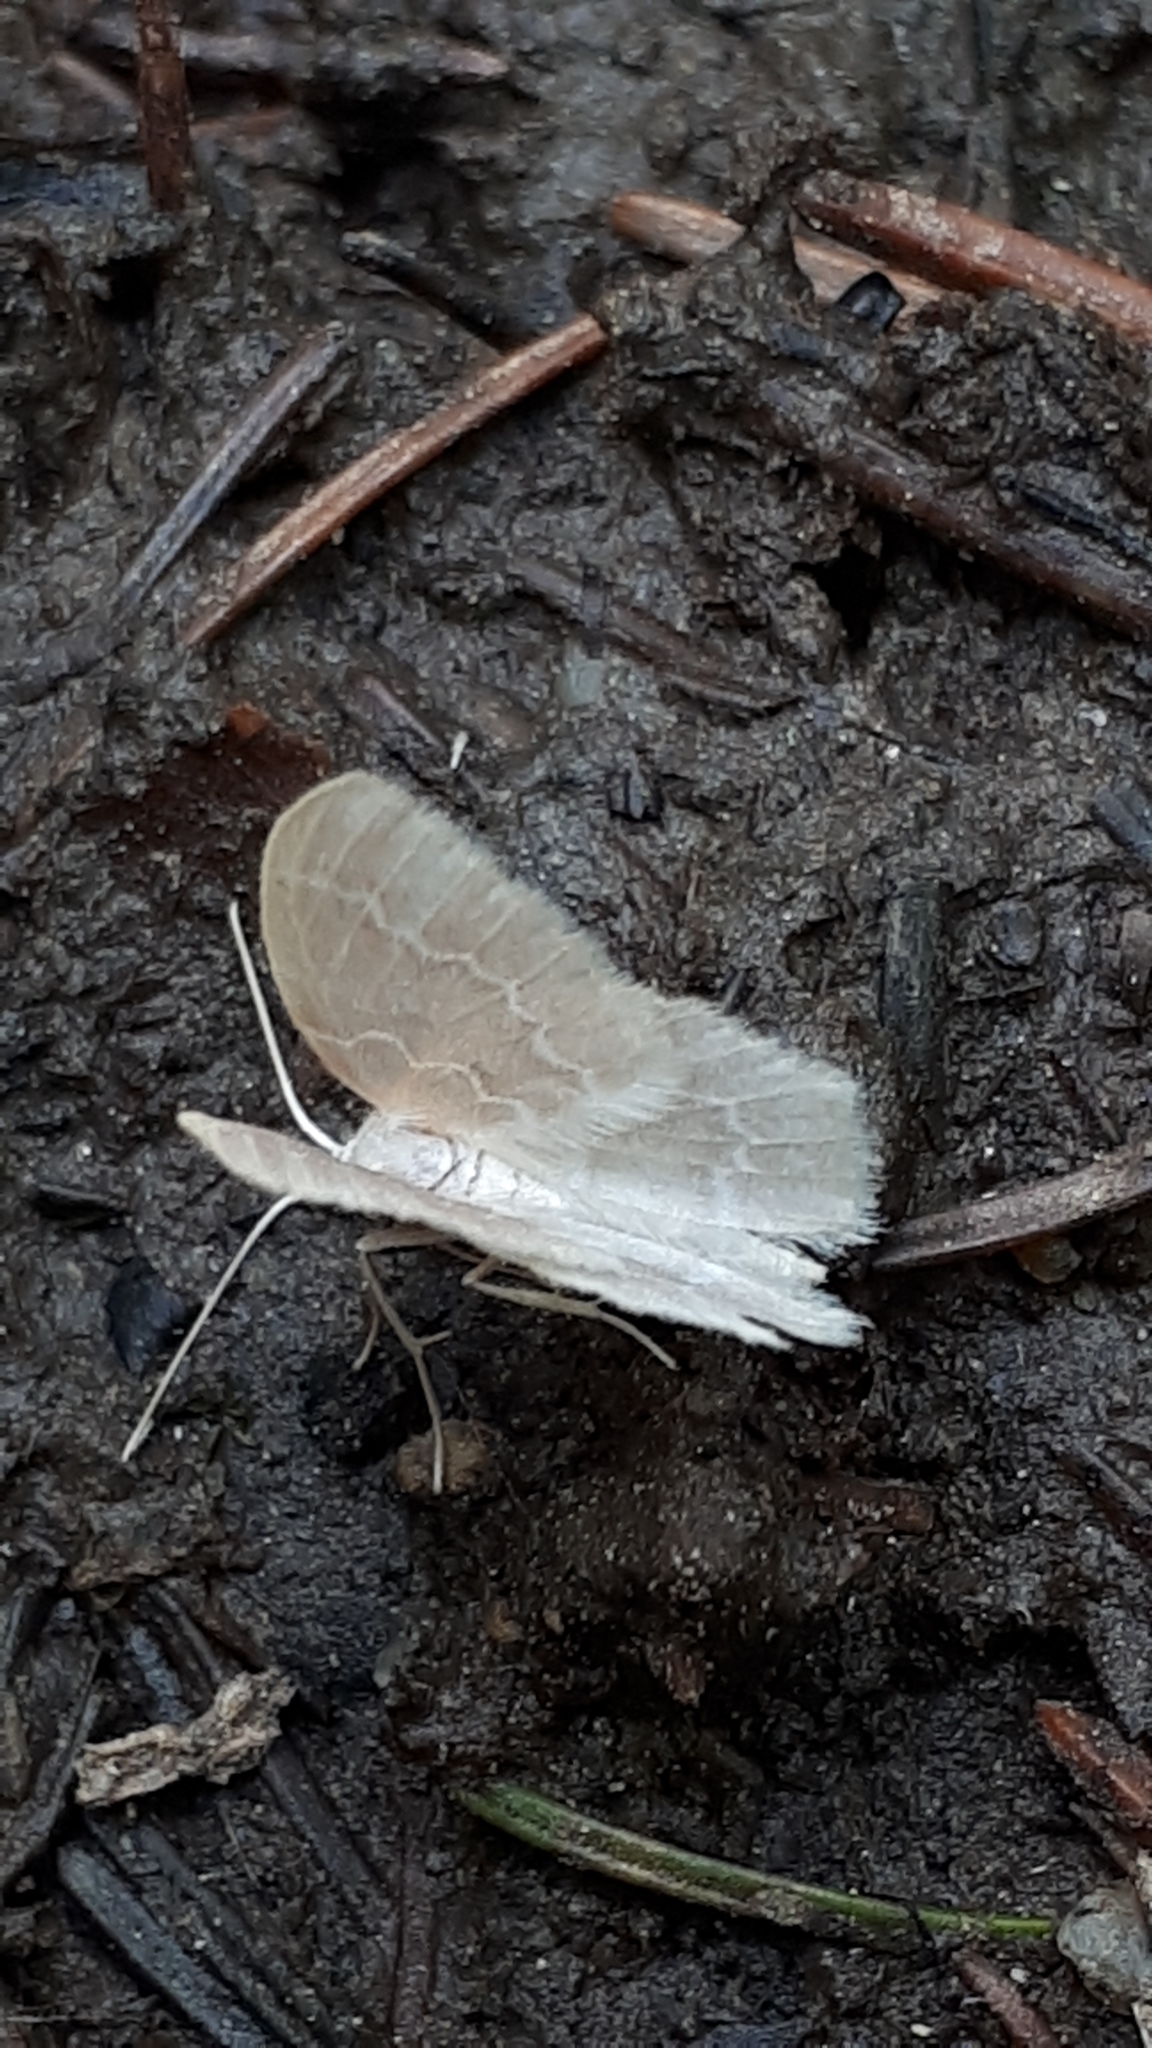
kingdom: Animalia
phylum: Arthropoda
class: Insecta
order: Lepidoptera
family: Geometridae
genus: Jodis
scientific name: Jodis putata
